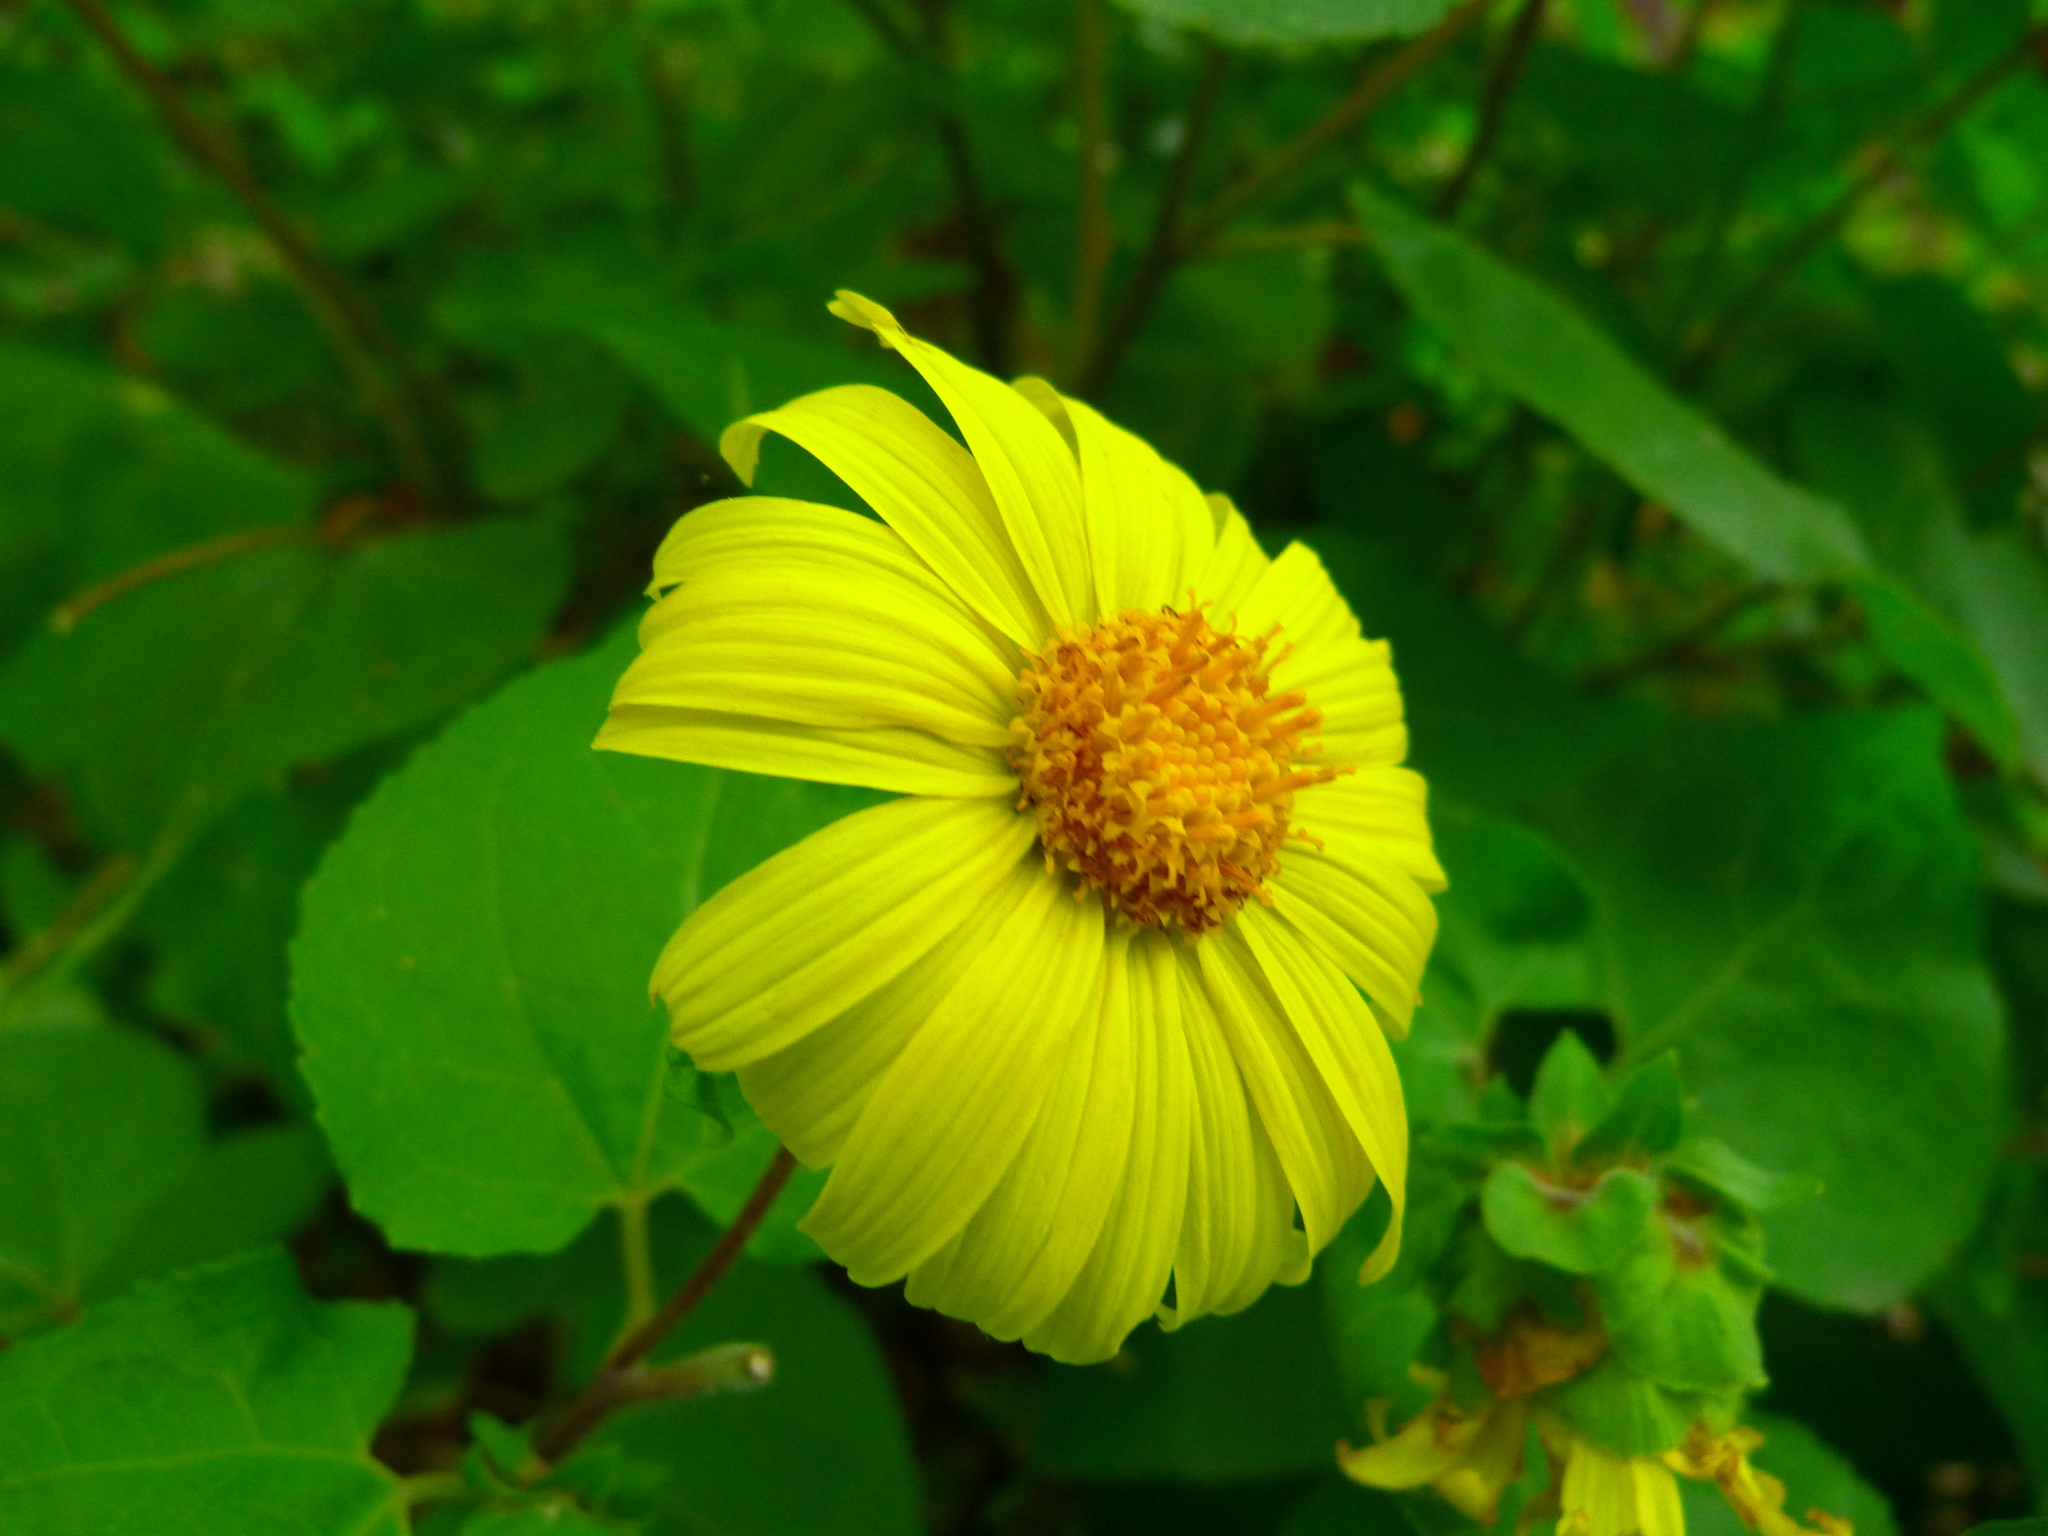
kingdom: Plantae
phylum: Tracheophyta
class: Magnoliopsida
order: Asterales
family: Asteraceae
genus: Venegasia
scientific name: Venegasia carpesioides
